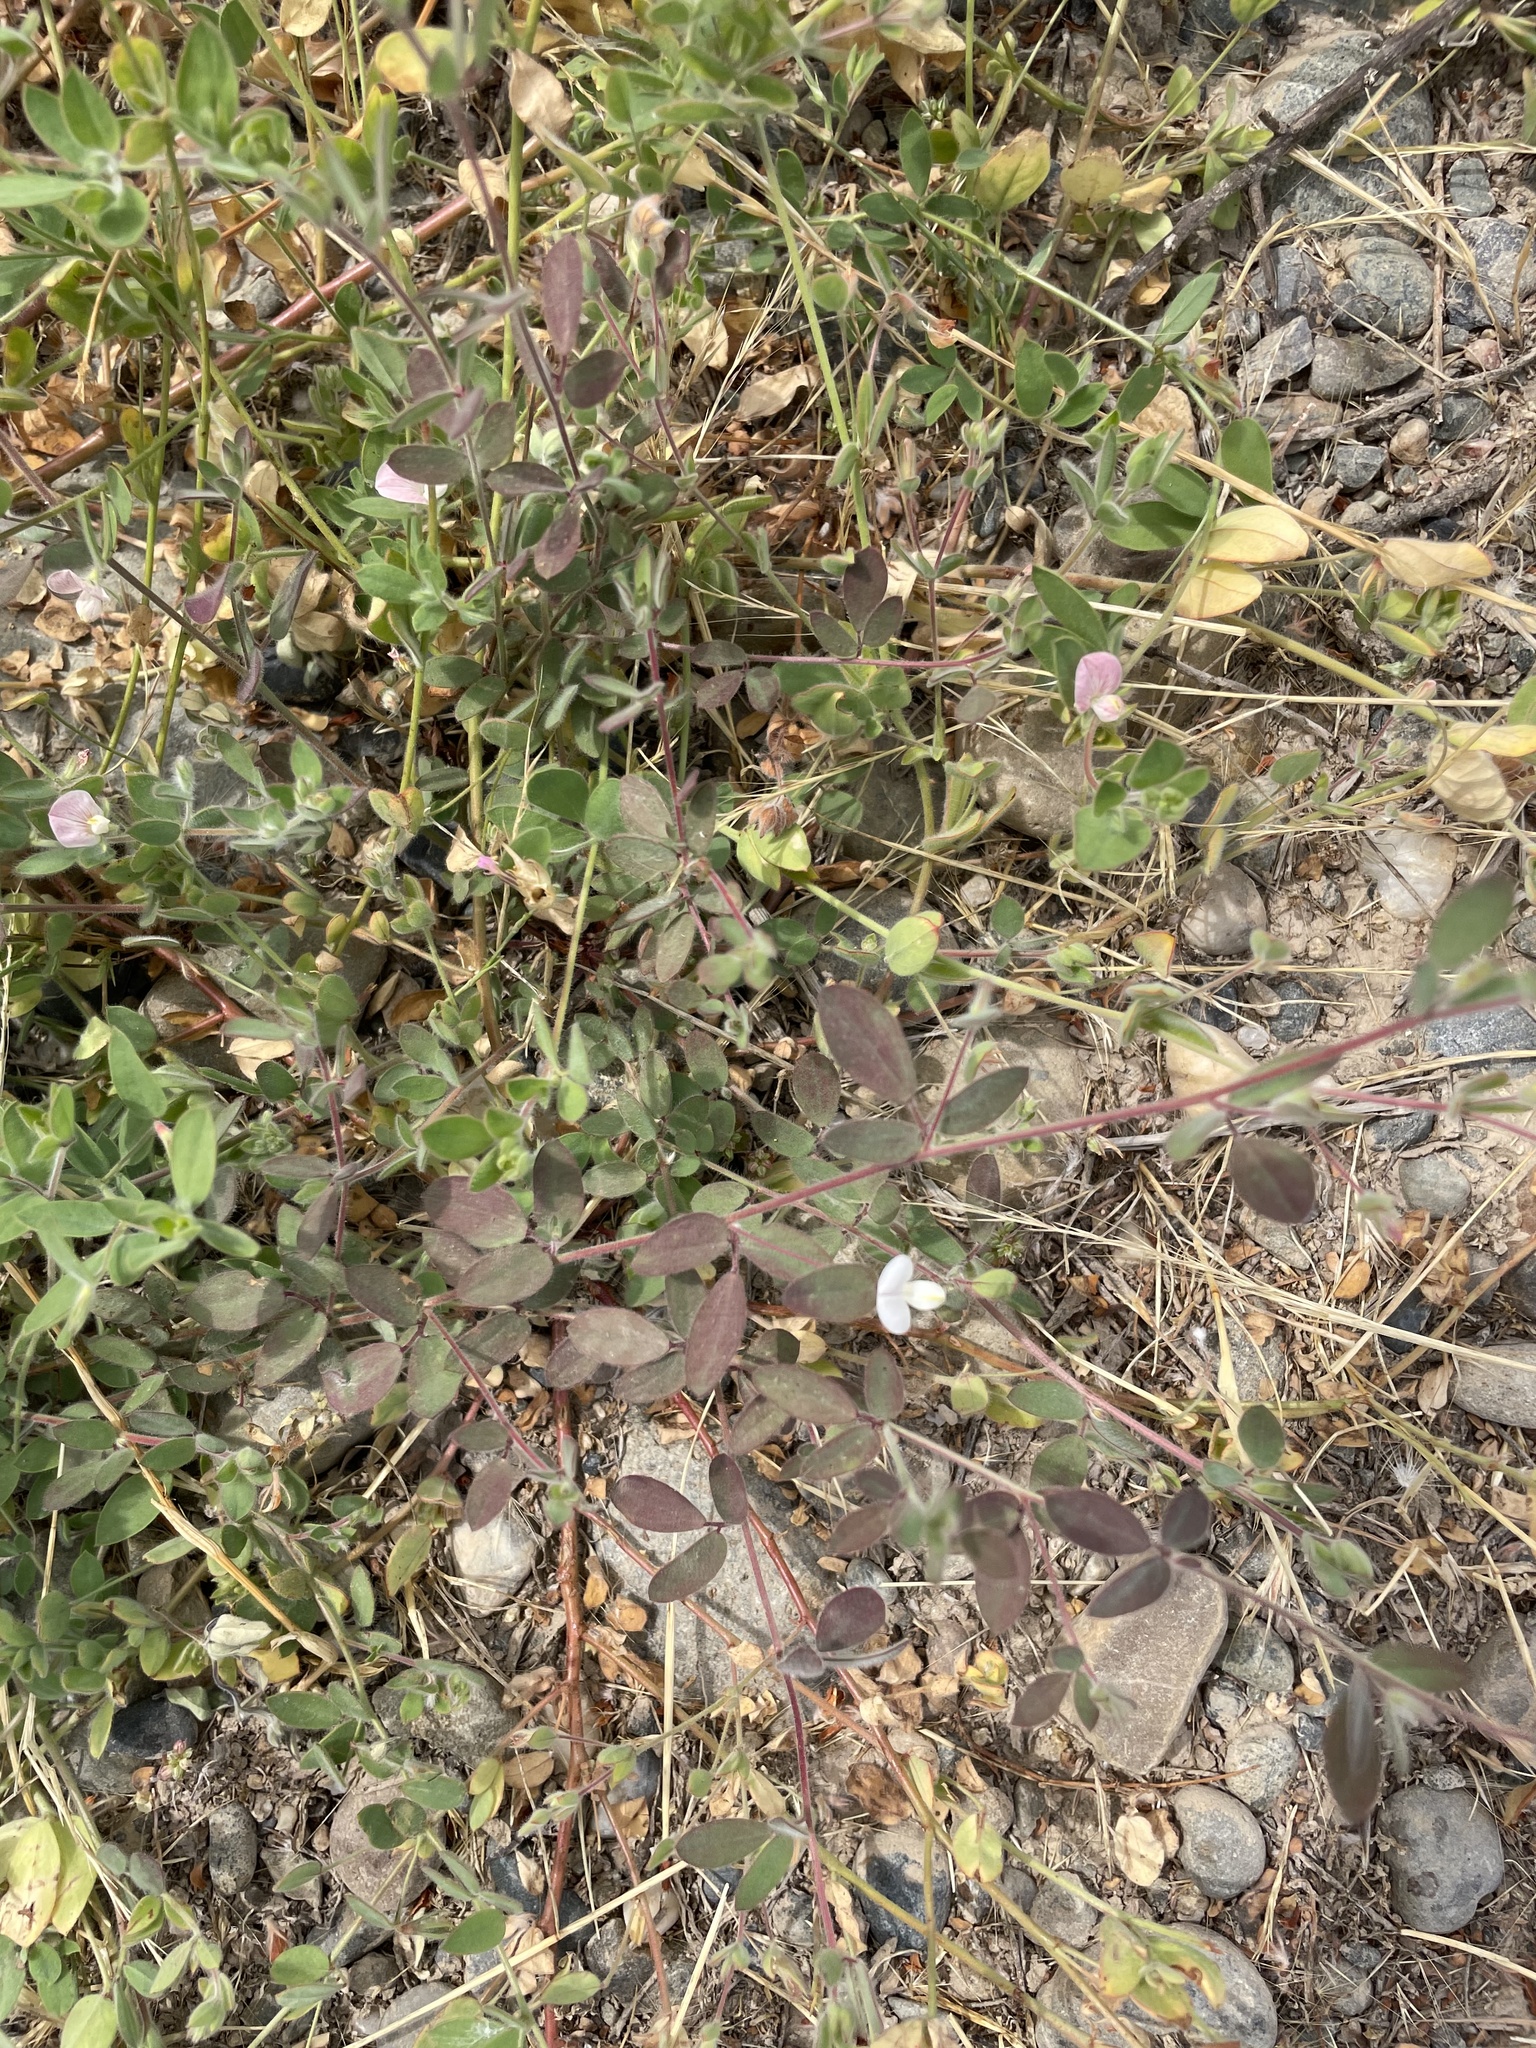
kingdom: Plantae
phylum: Tracheophyta
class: Magnoliopsida
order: Fabales
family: Fabaceae
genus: Acmispon
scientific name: Acmispon americanus
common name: American bird's-foot trefoil
